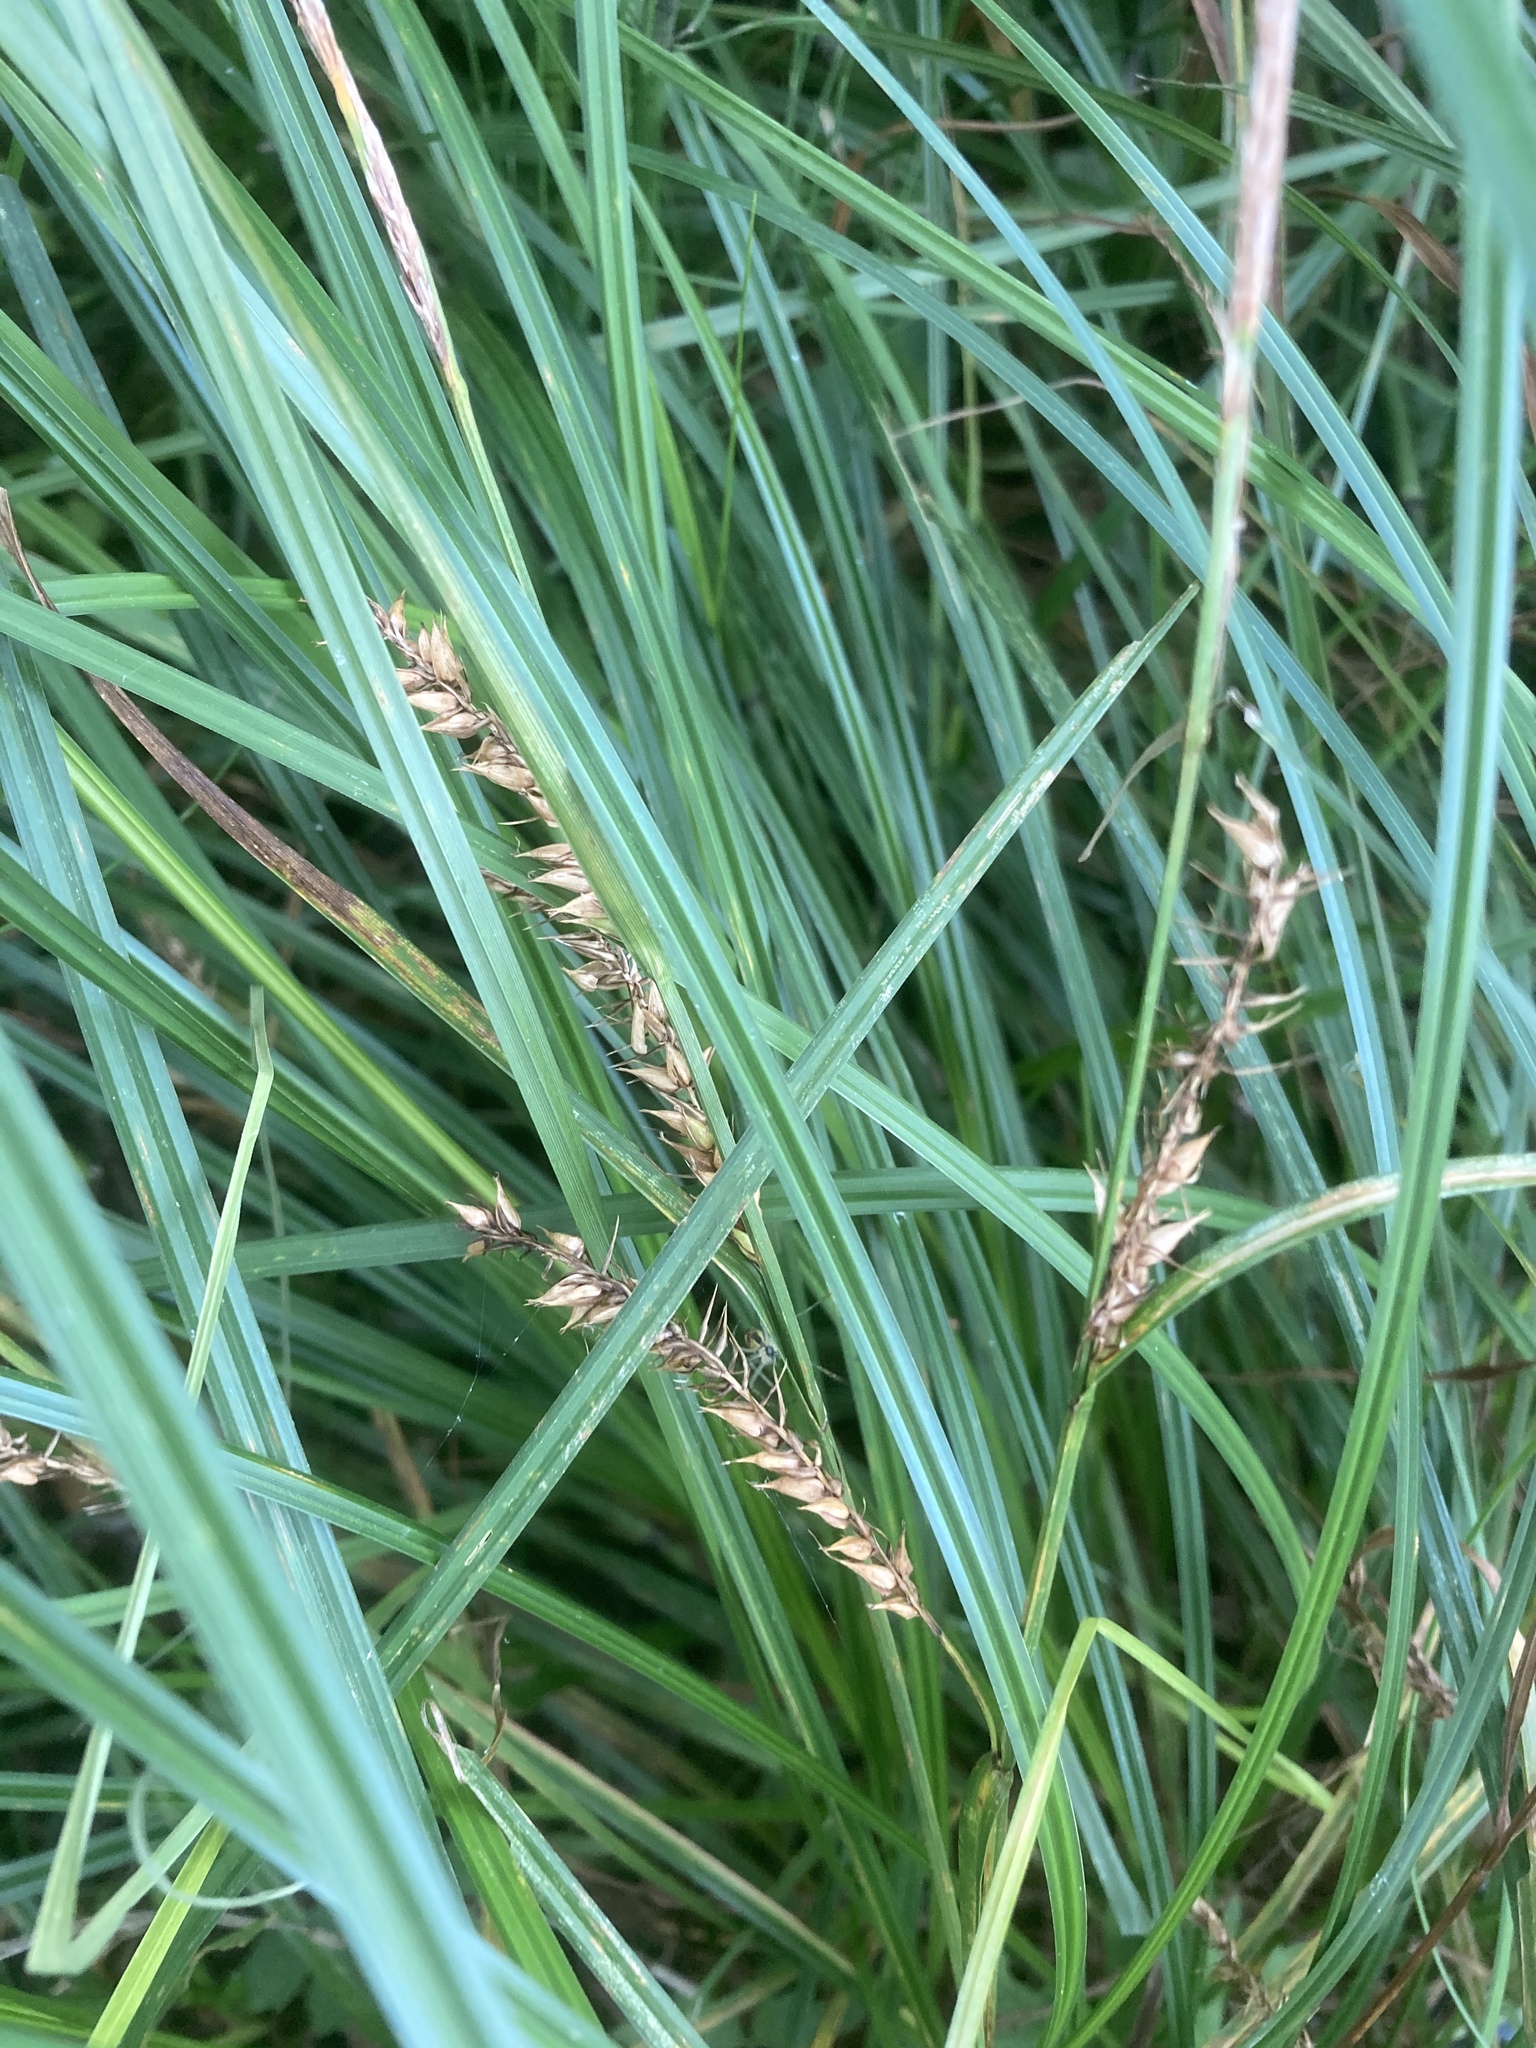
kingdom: Plantae
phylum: Tracheophyta
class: Liliopsida
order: Poales
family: Cyperaceae
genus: Carex
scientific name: Carex vesicaria
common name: Bladder-sedge
